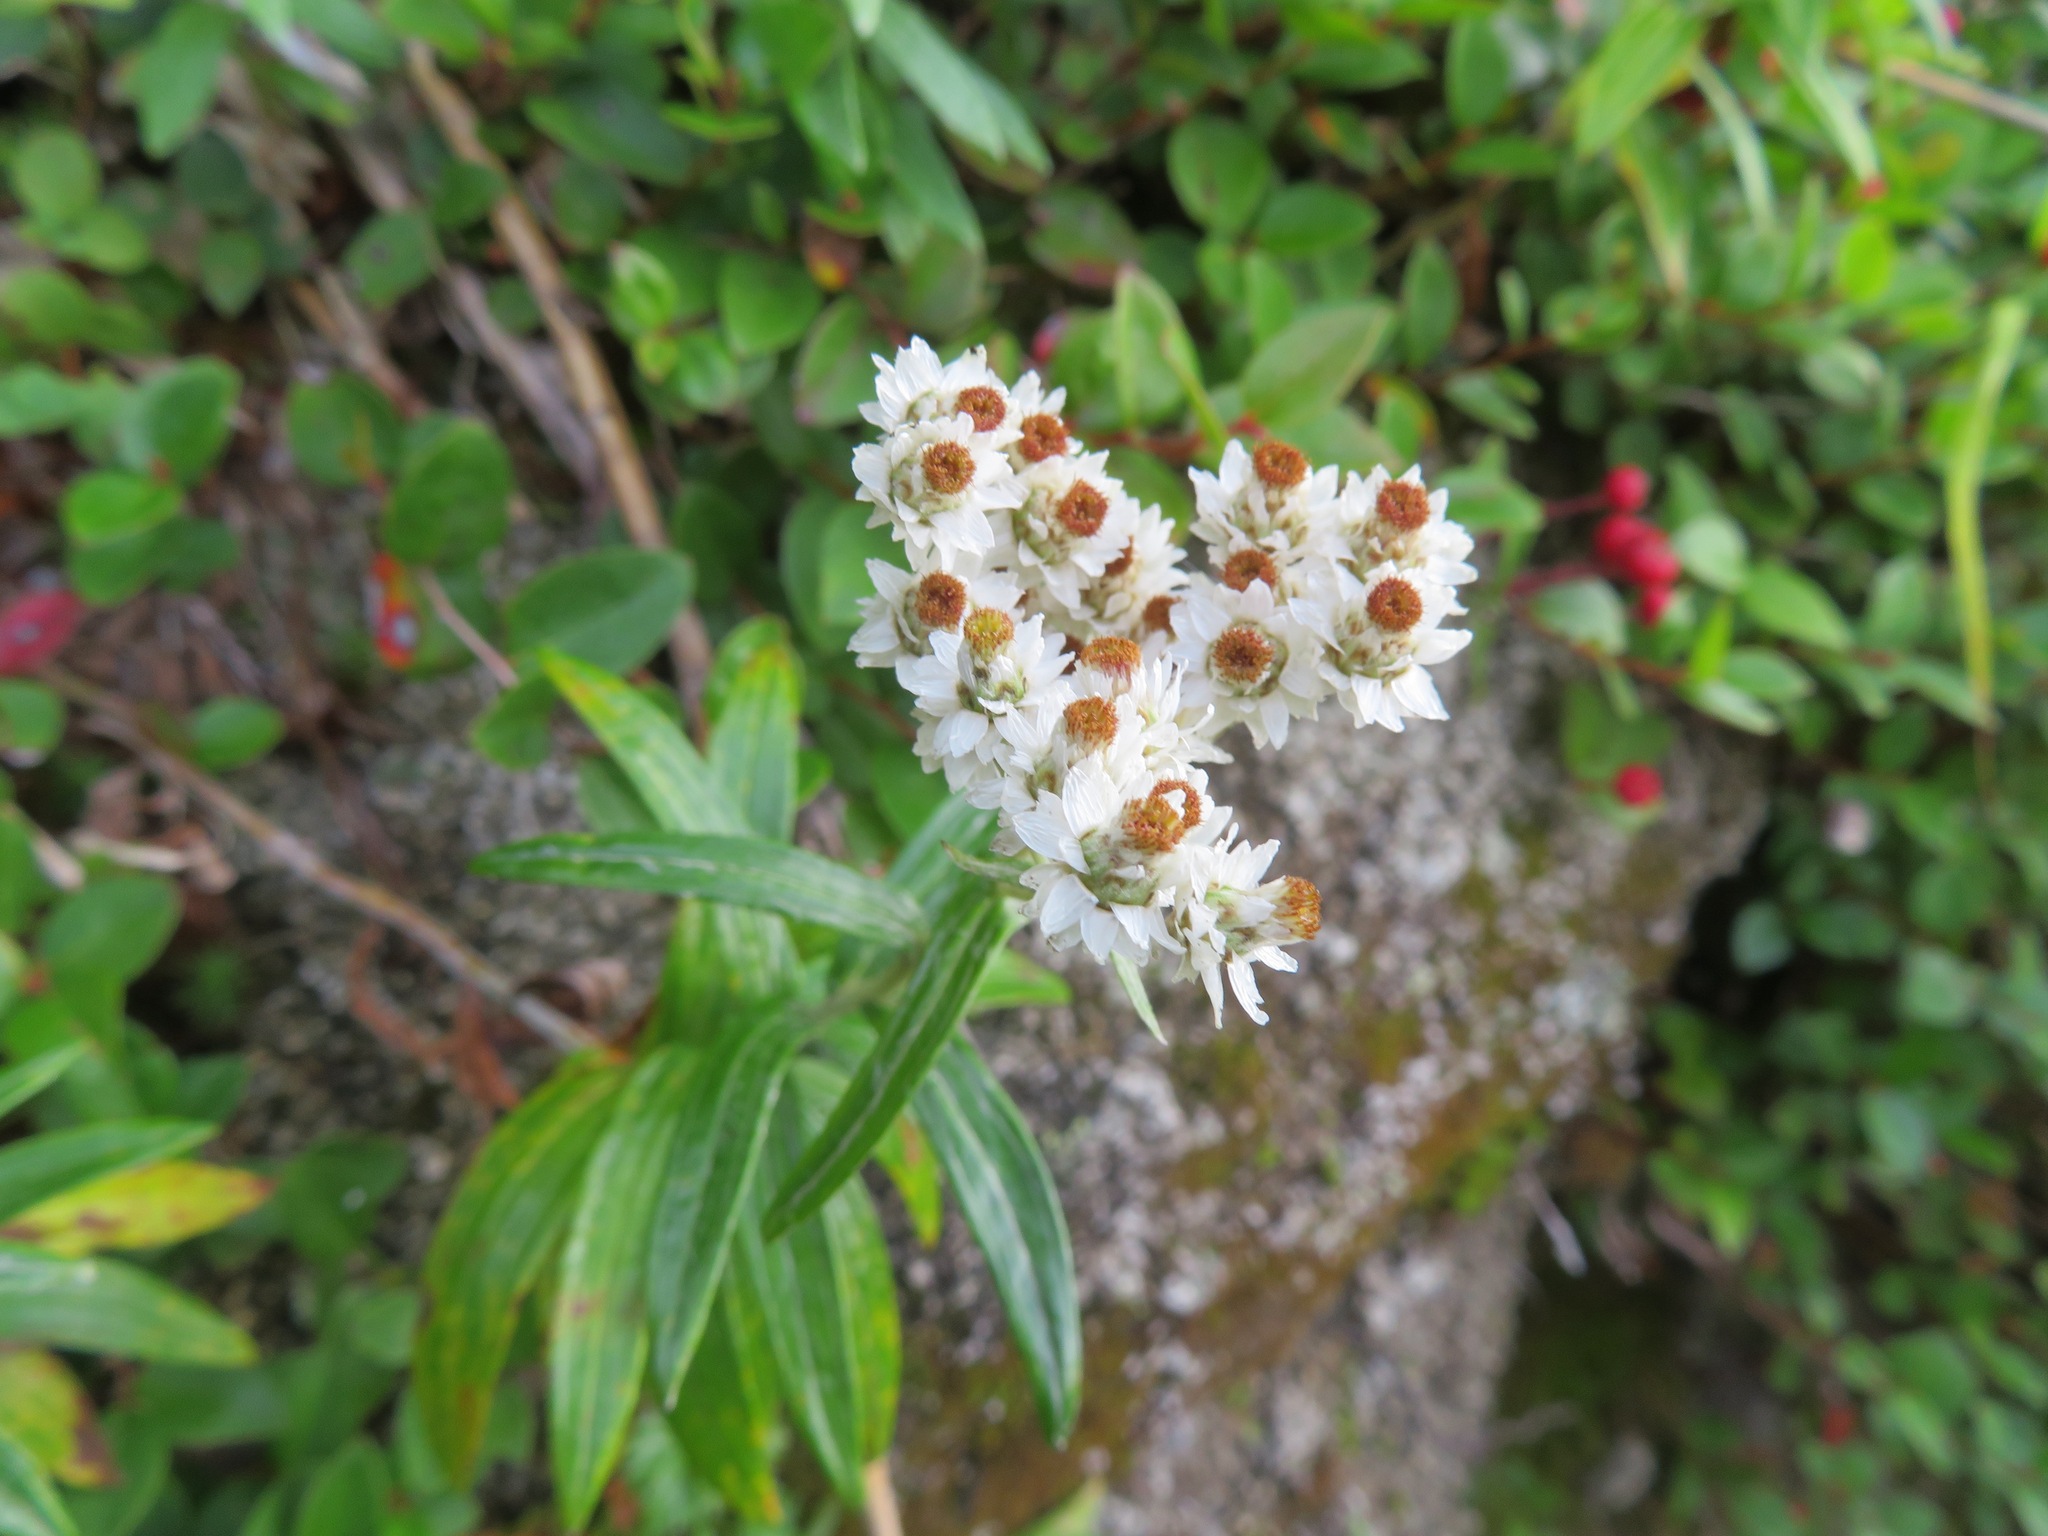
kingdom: Plantae
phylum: Tracheophyta
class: Magnoliopsida
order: Asterales
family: Asteraceae
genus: Anaphalis
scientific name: Anaphalis margaritacea
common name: Pearly everlasting
